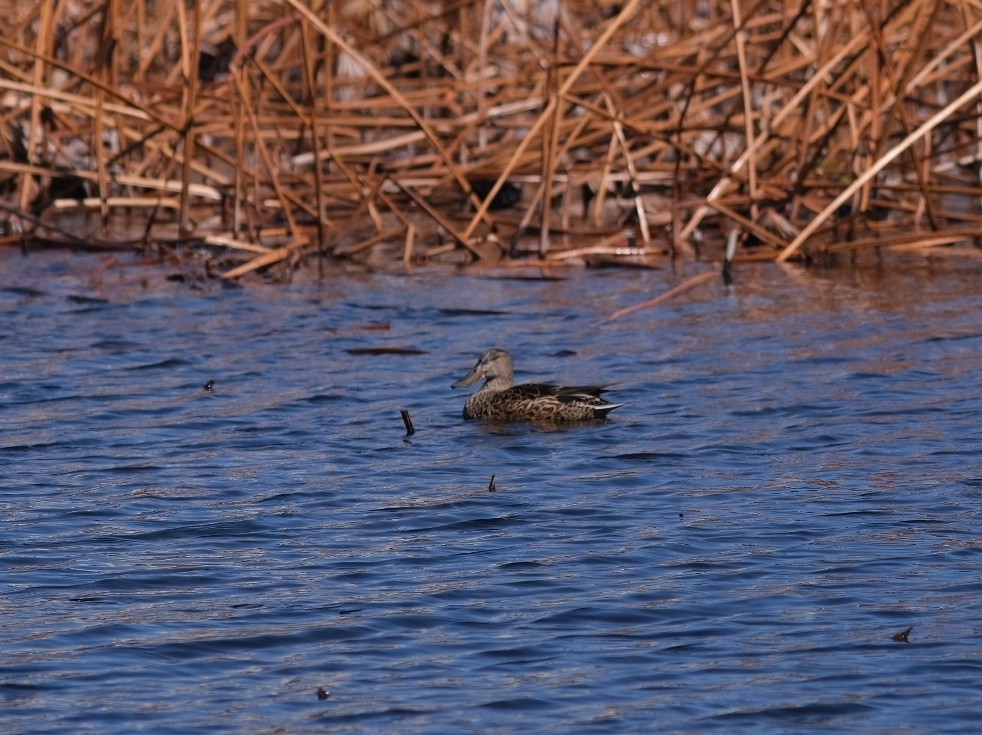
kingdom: Animalia
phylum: Chordata
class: Aves
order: Anseriformes
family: Anatidae
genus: Spatula
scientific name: Spatula clypeata
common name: Northern shoveler
